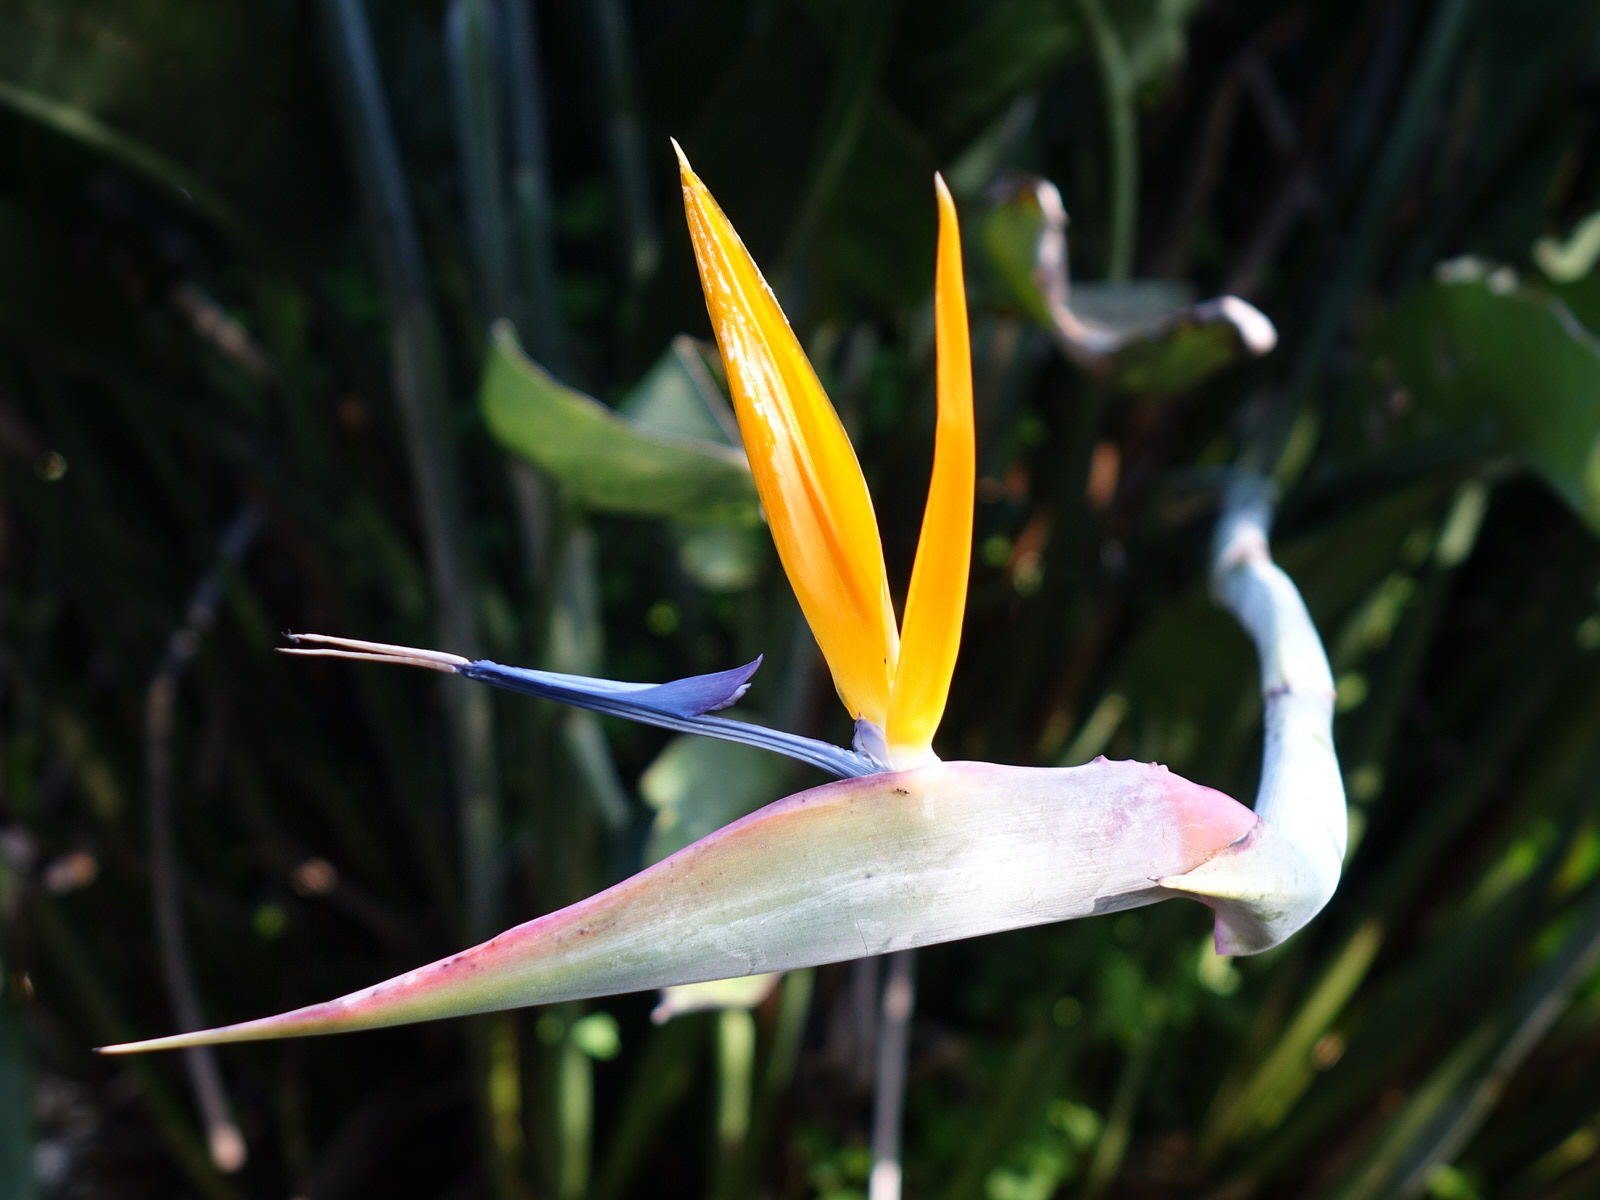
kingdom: Animalia
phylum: Arthropoda
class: Insecta
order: Hymenoptera
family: Formicidae
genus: Technomyrmex
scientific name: Technomyrmex jocosus
